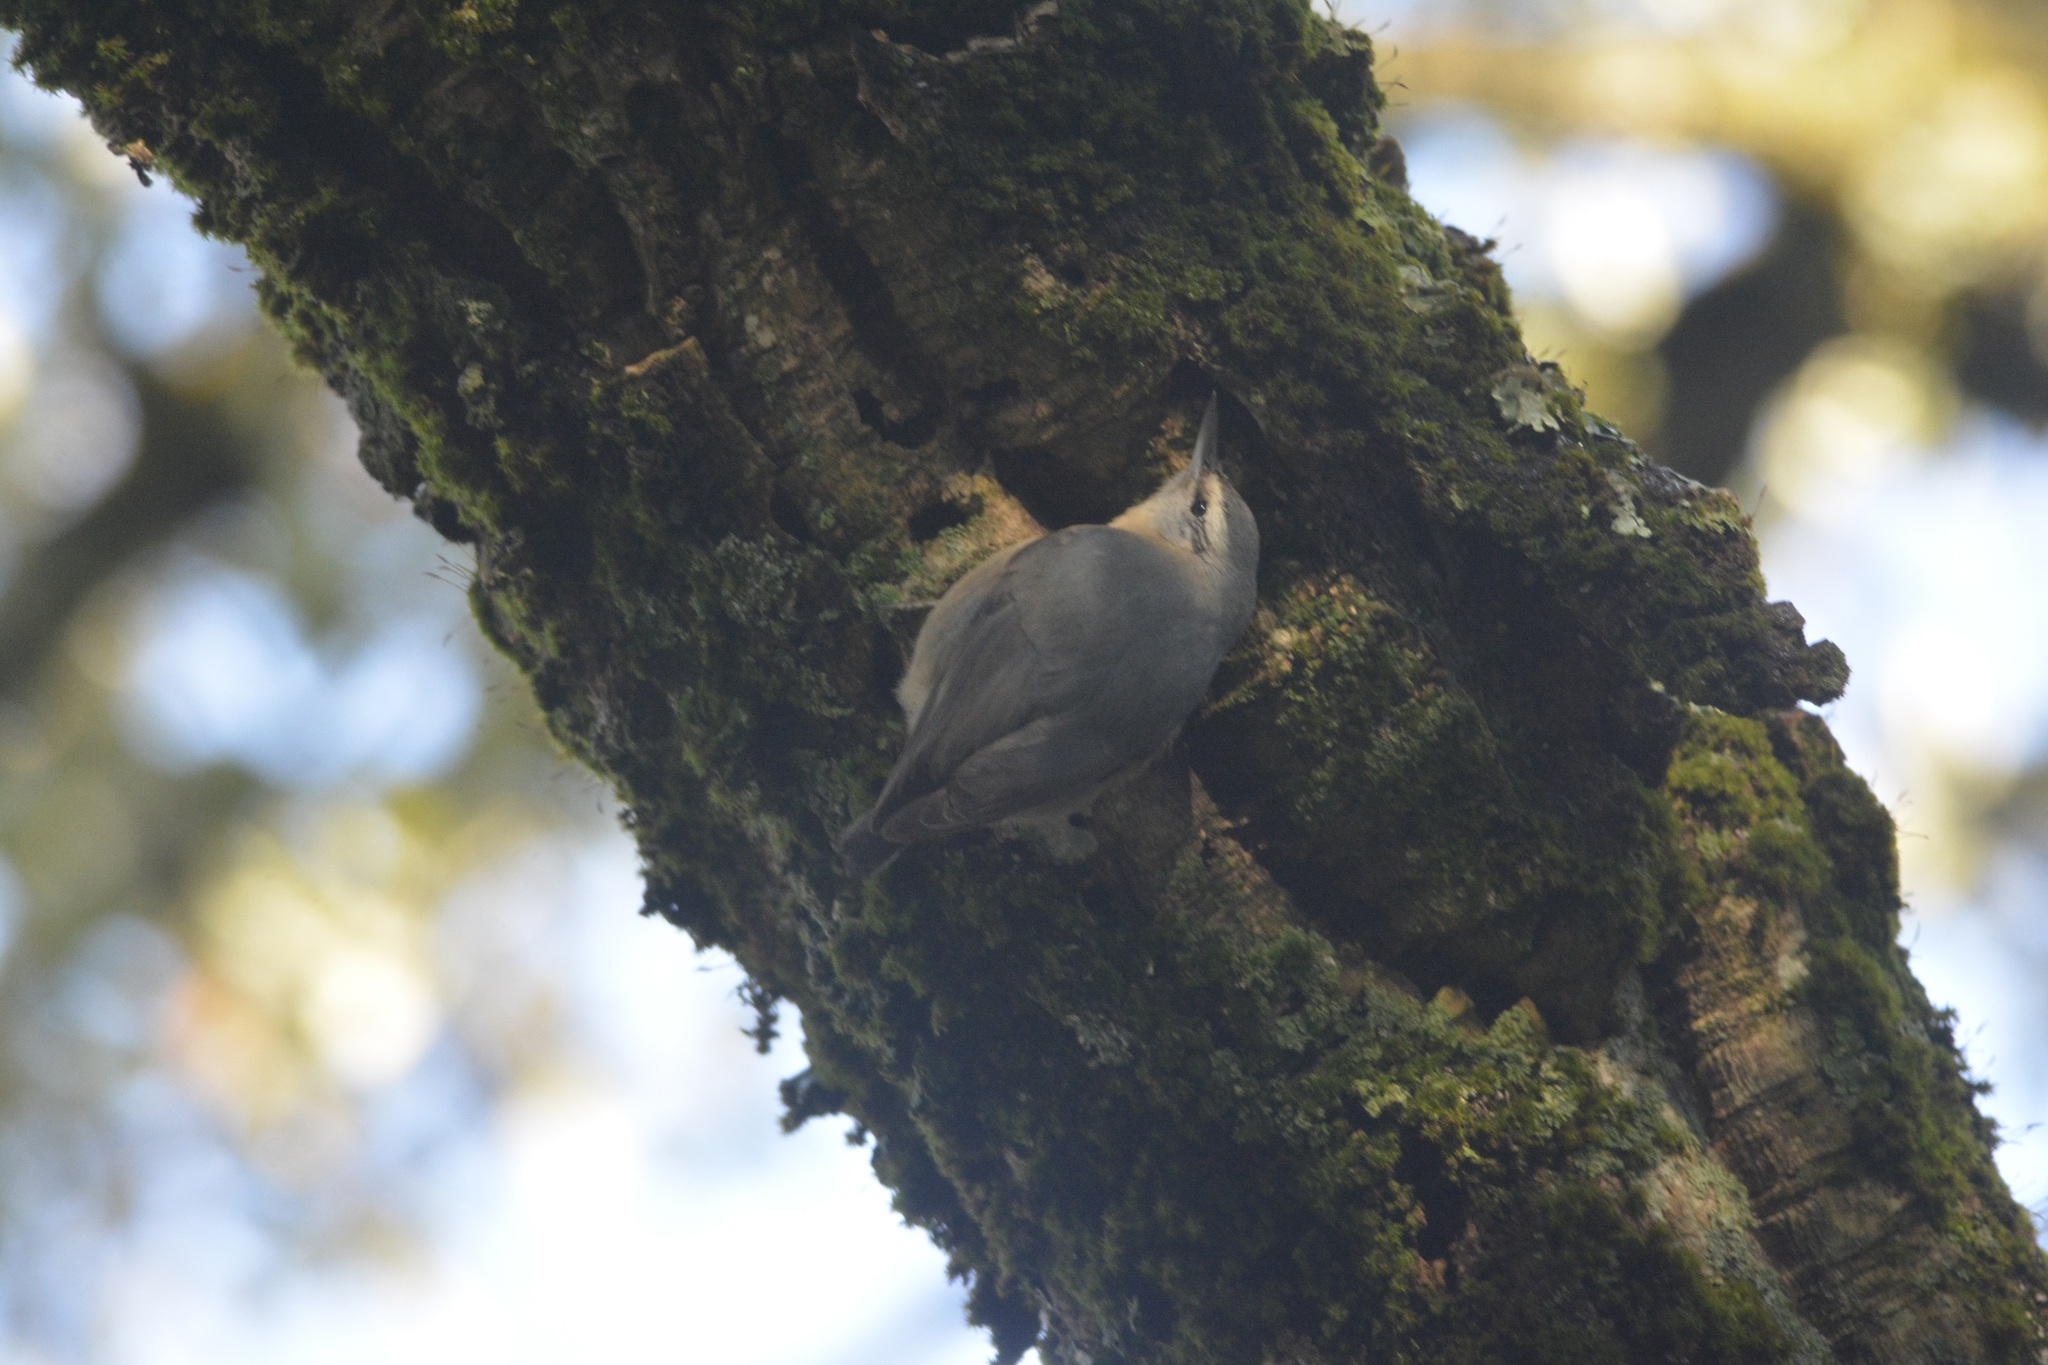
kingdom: Animalia
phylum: Chordata
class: Aves
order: Passeriformes
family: Sittidae
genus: Sitta
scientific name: Sitta ledanti
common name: Algerian nuthatch
